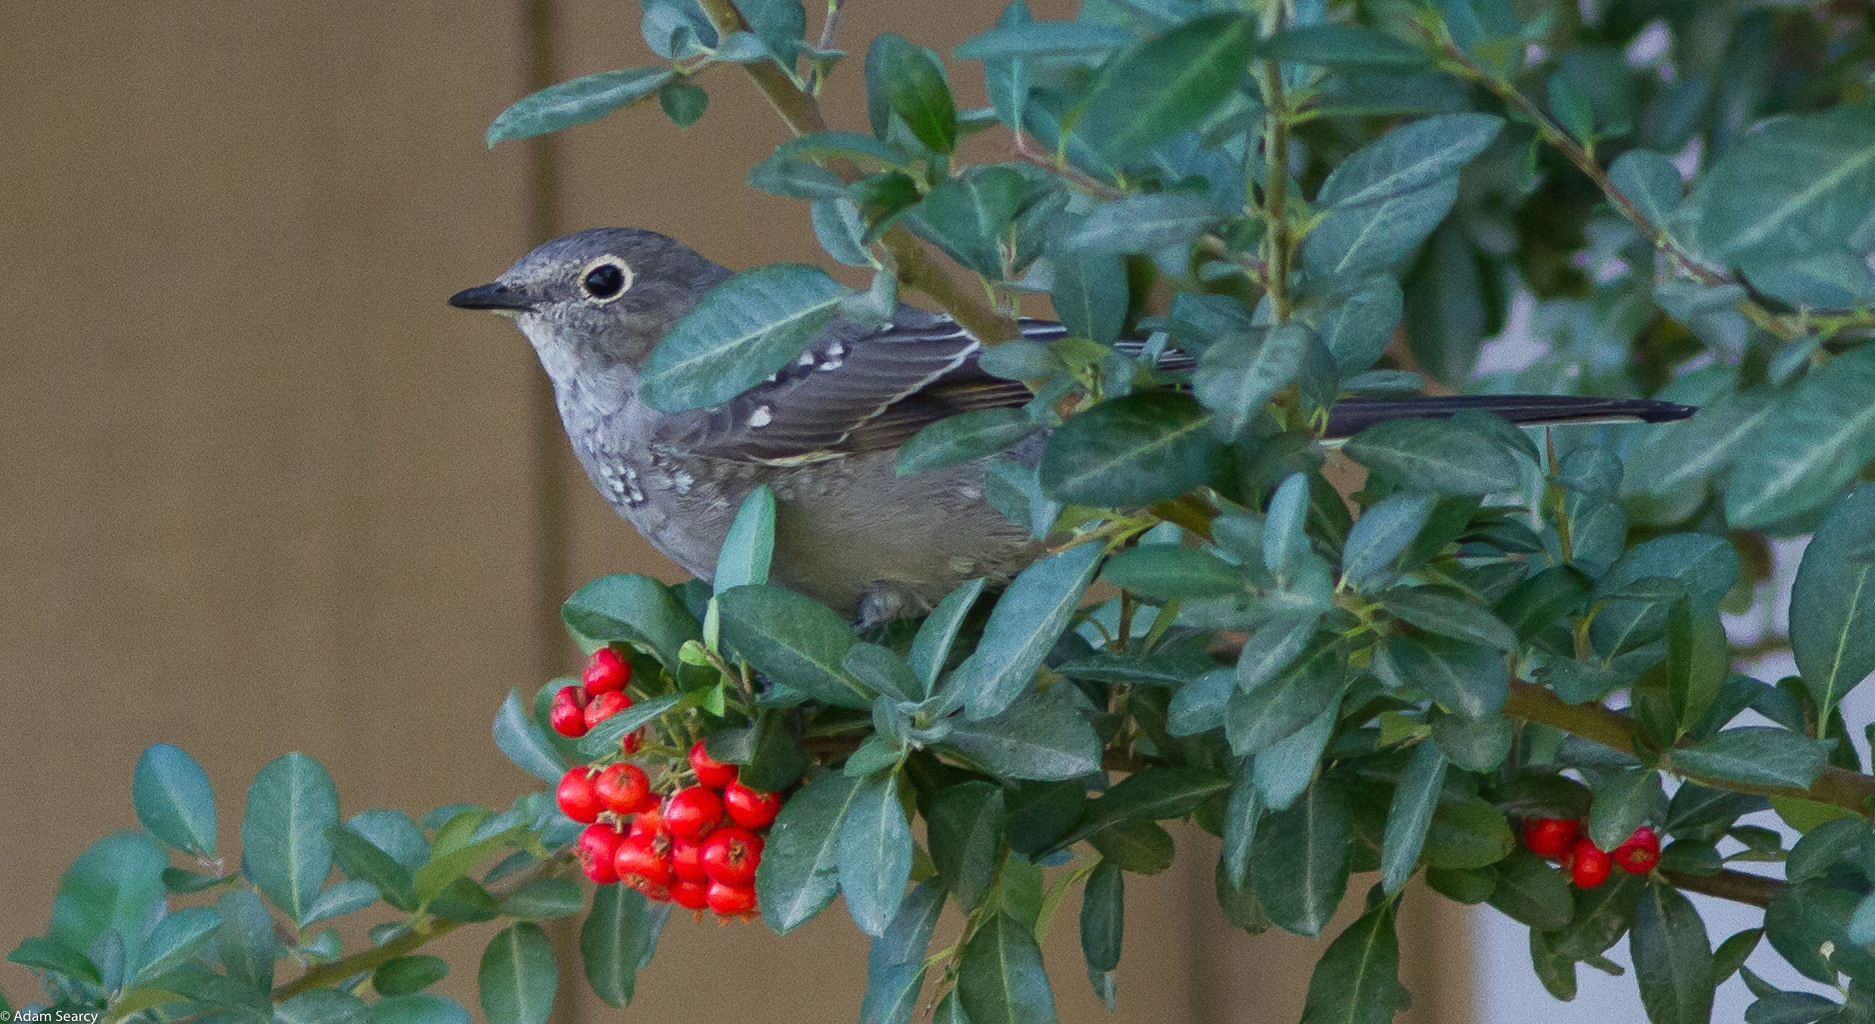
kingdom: Animalia
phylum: Chordata
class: Aves
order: Passeriformes
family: Turdidae
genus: Myadestes
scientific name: Myadestes townsendi
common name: Townsend's solitaire
